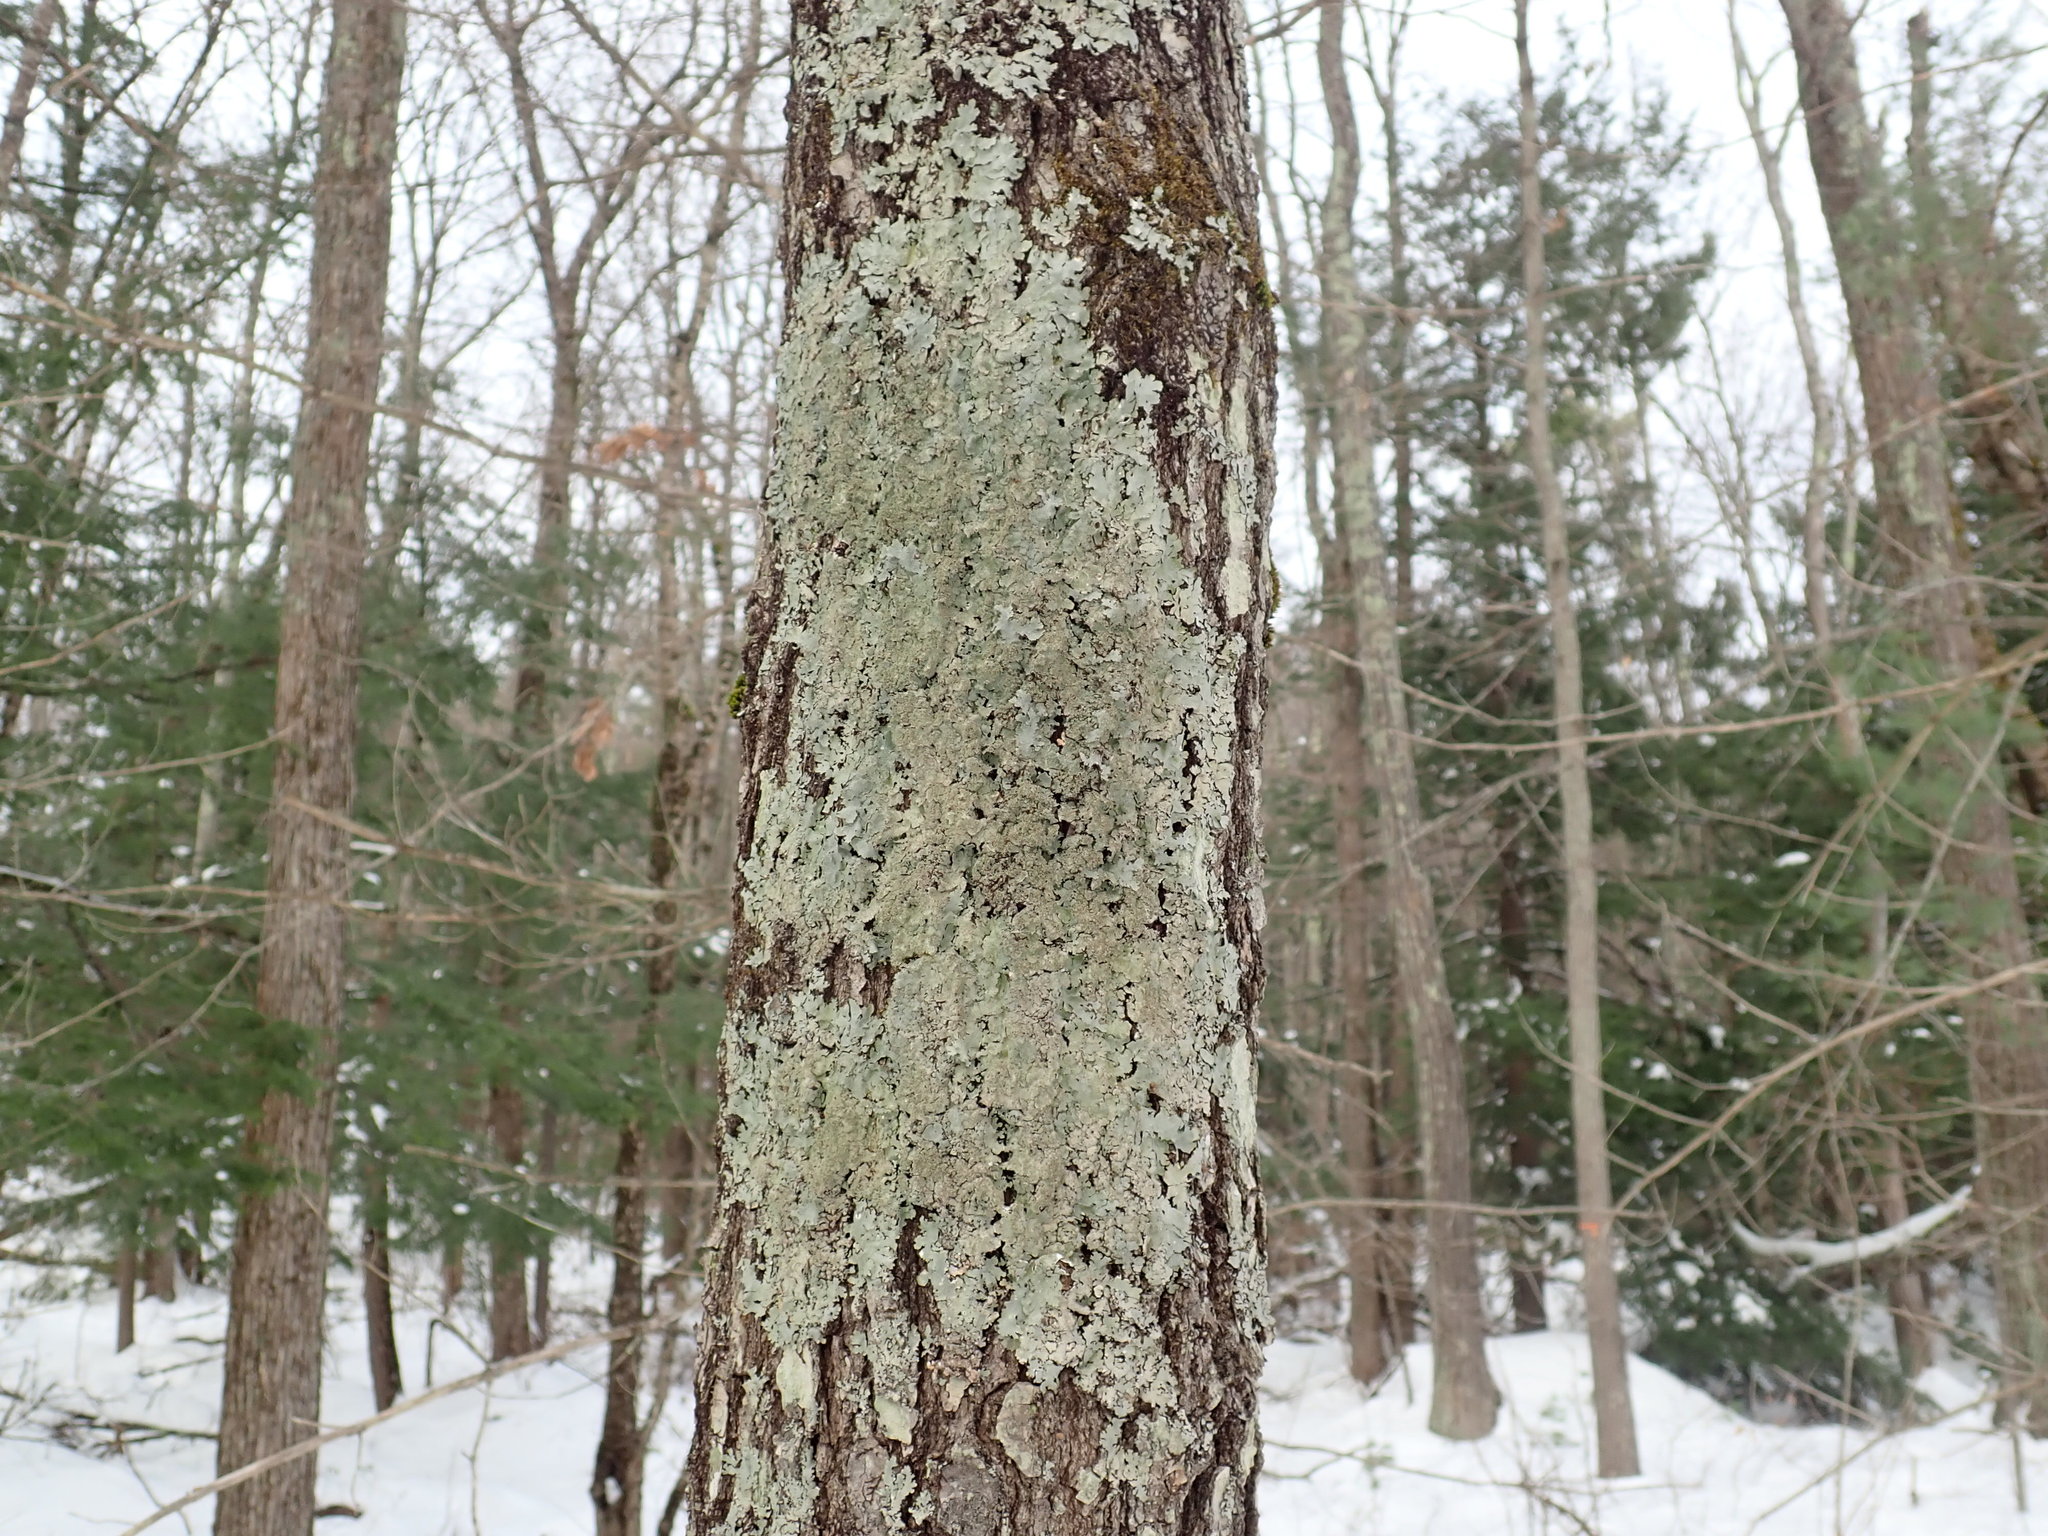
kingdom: Fungi
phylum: Ascomycota
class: Lecanoromycetes
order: Lecanorales
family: Parmeliaceae
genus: Punctelia
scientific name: Punctelia rudecta
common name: Rough speckled shield lichen
